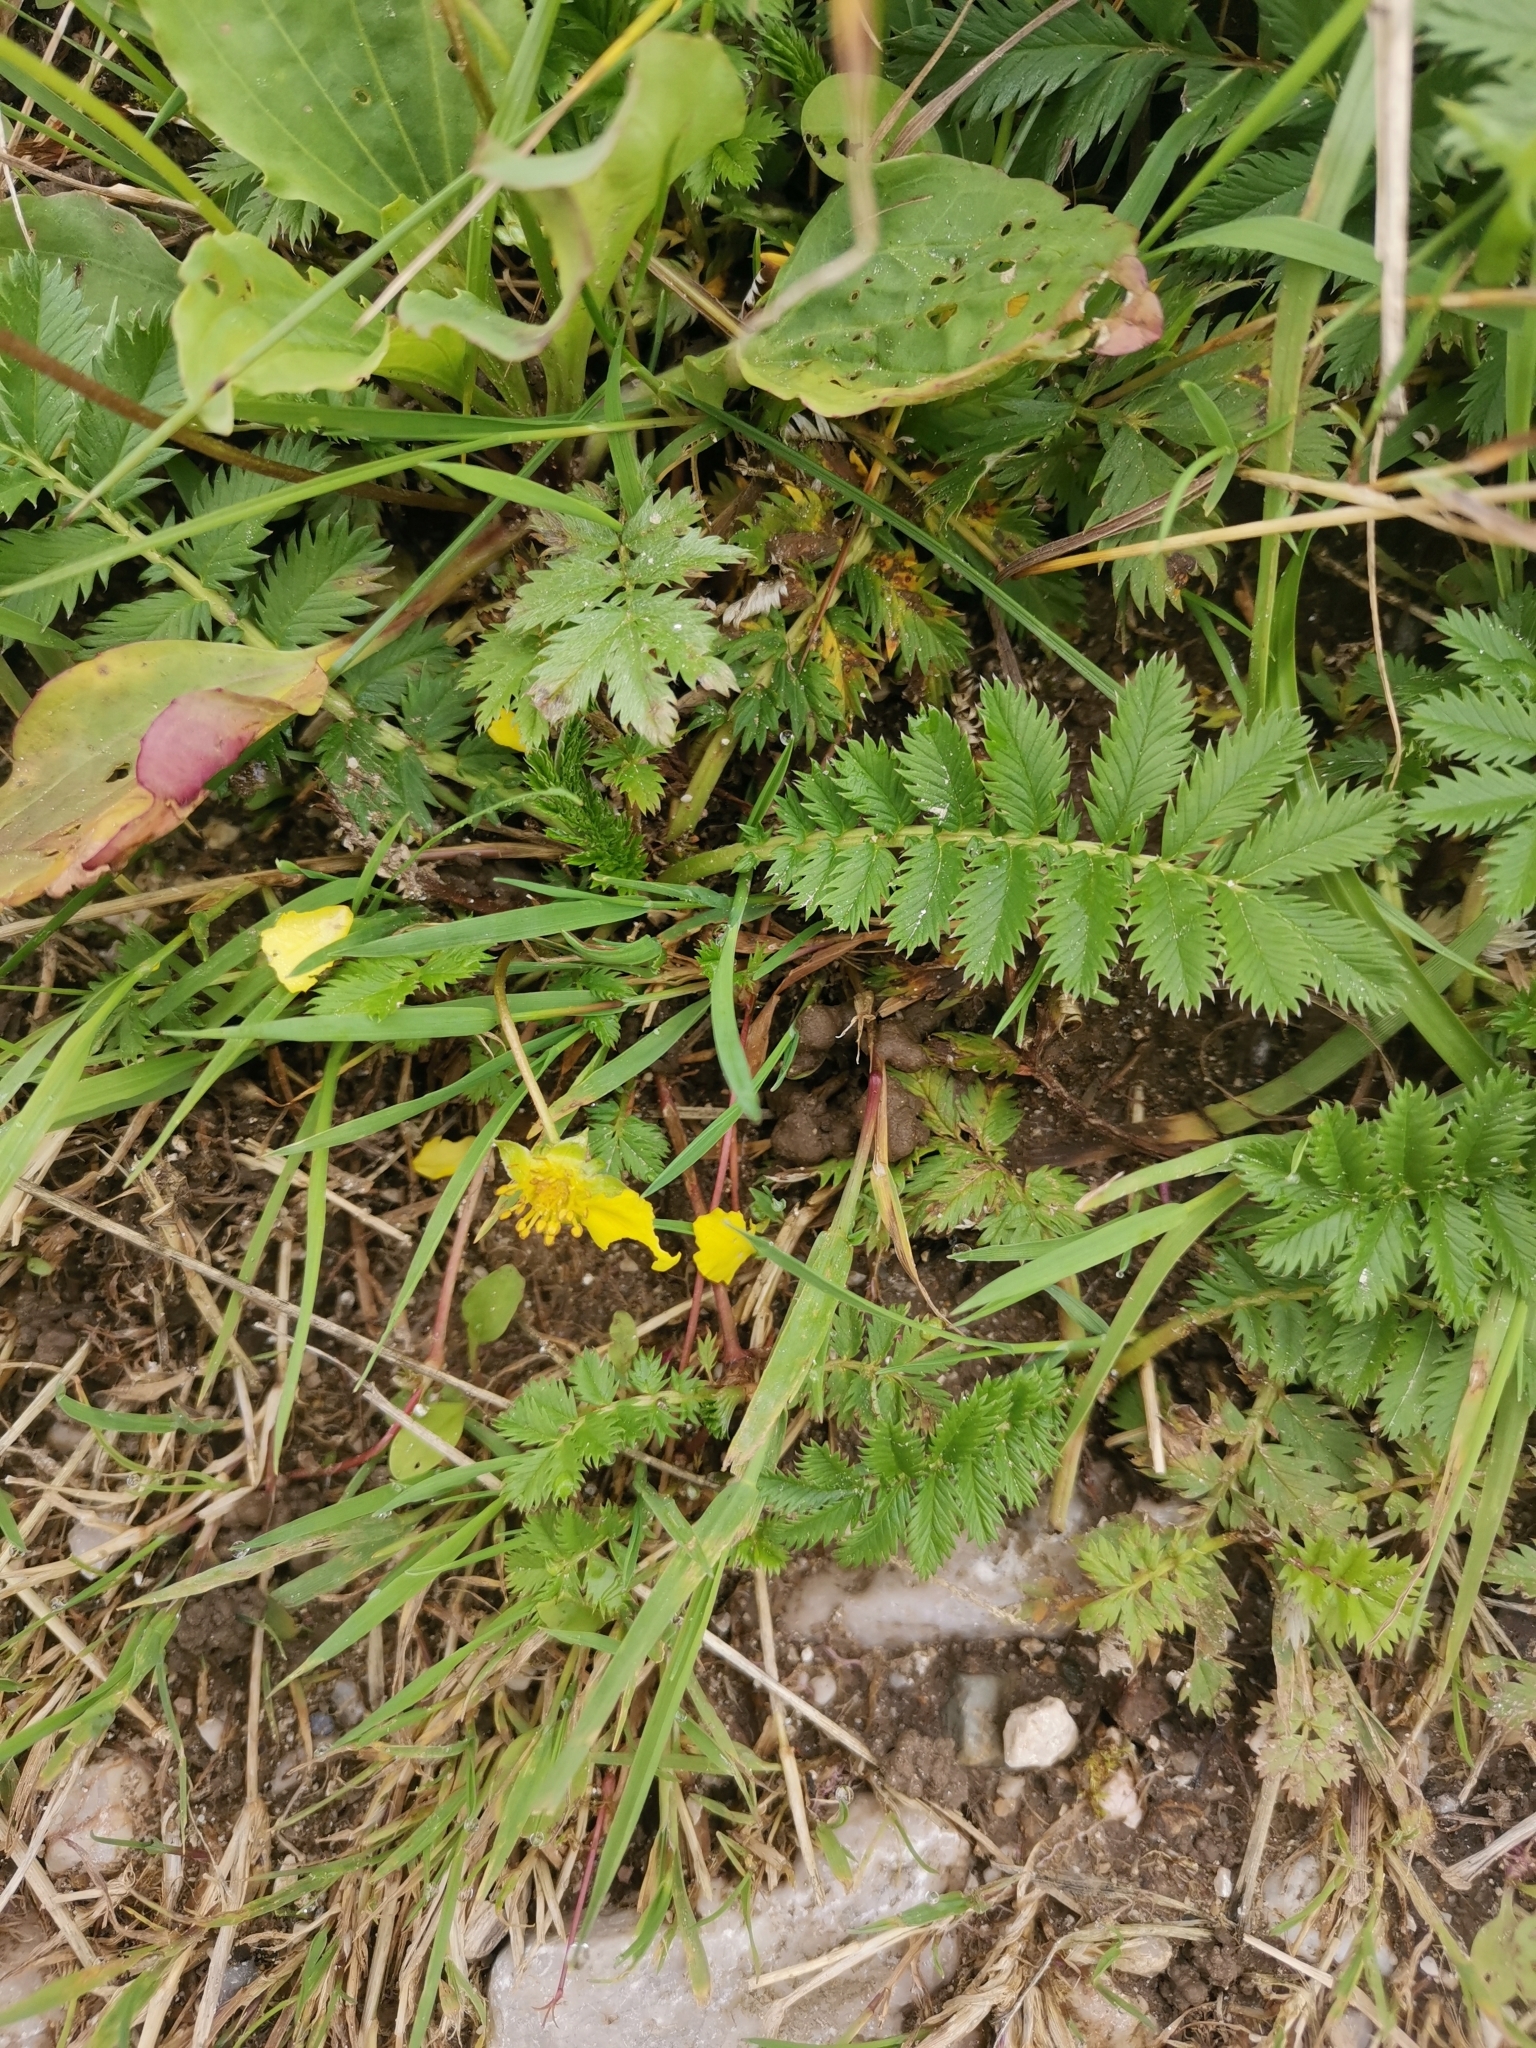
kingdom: Plantae
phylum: Tracheophyta
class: Magnoliopsida
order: Rosales
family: Rosaceae
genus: Argentina
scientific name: Argentina anserina
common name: Common silverweed
